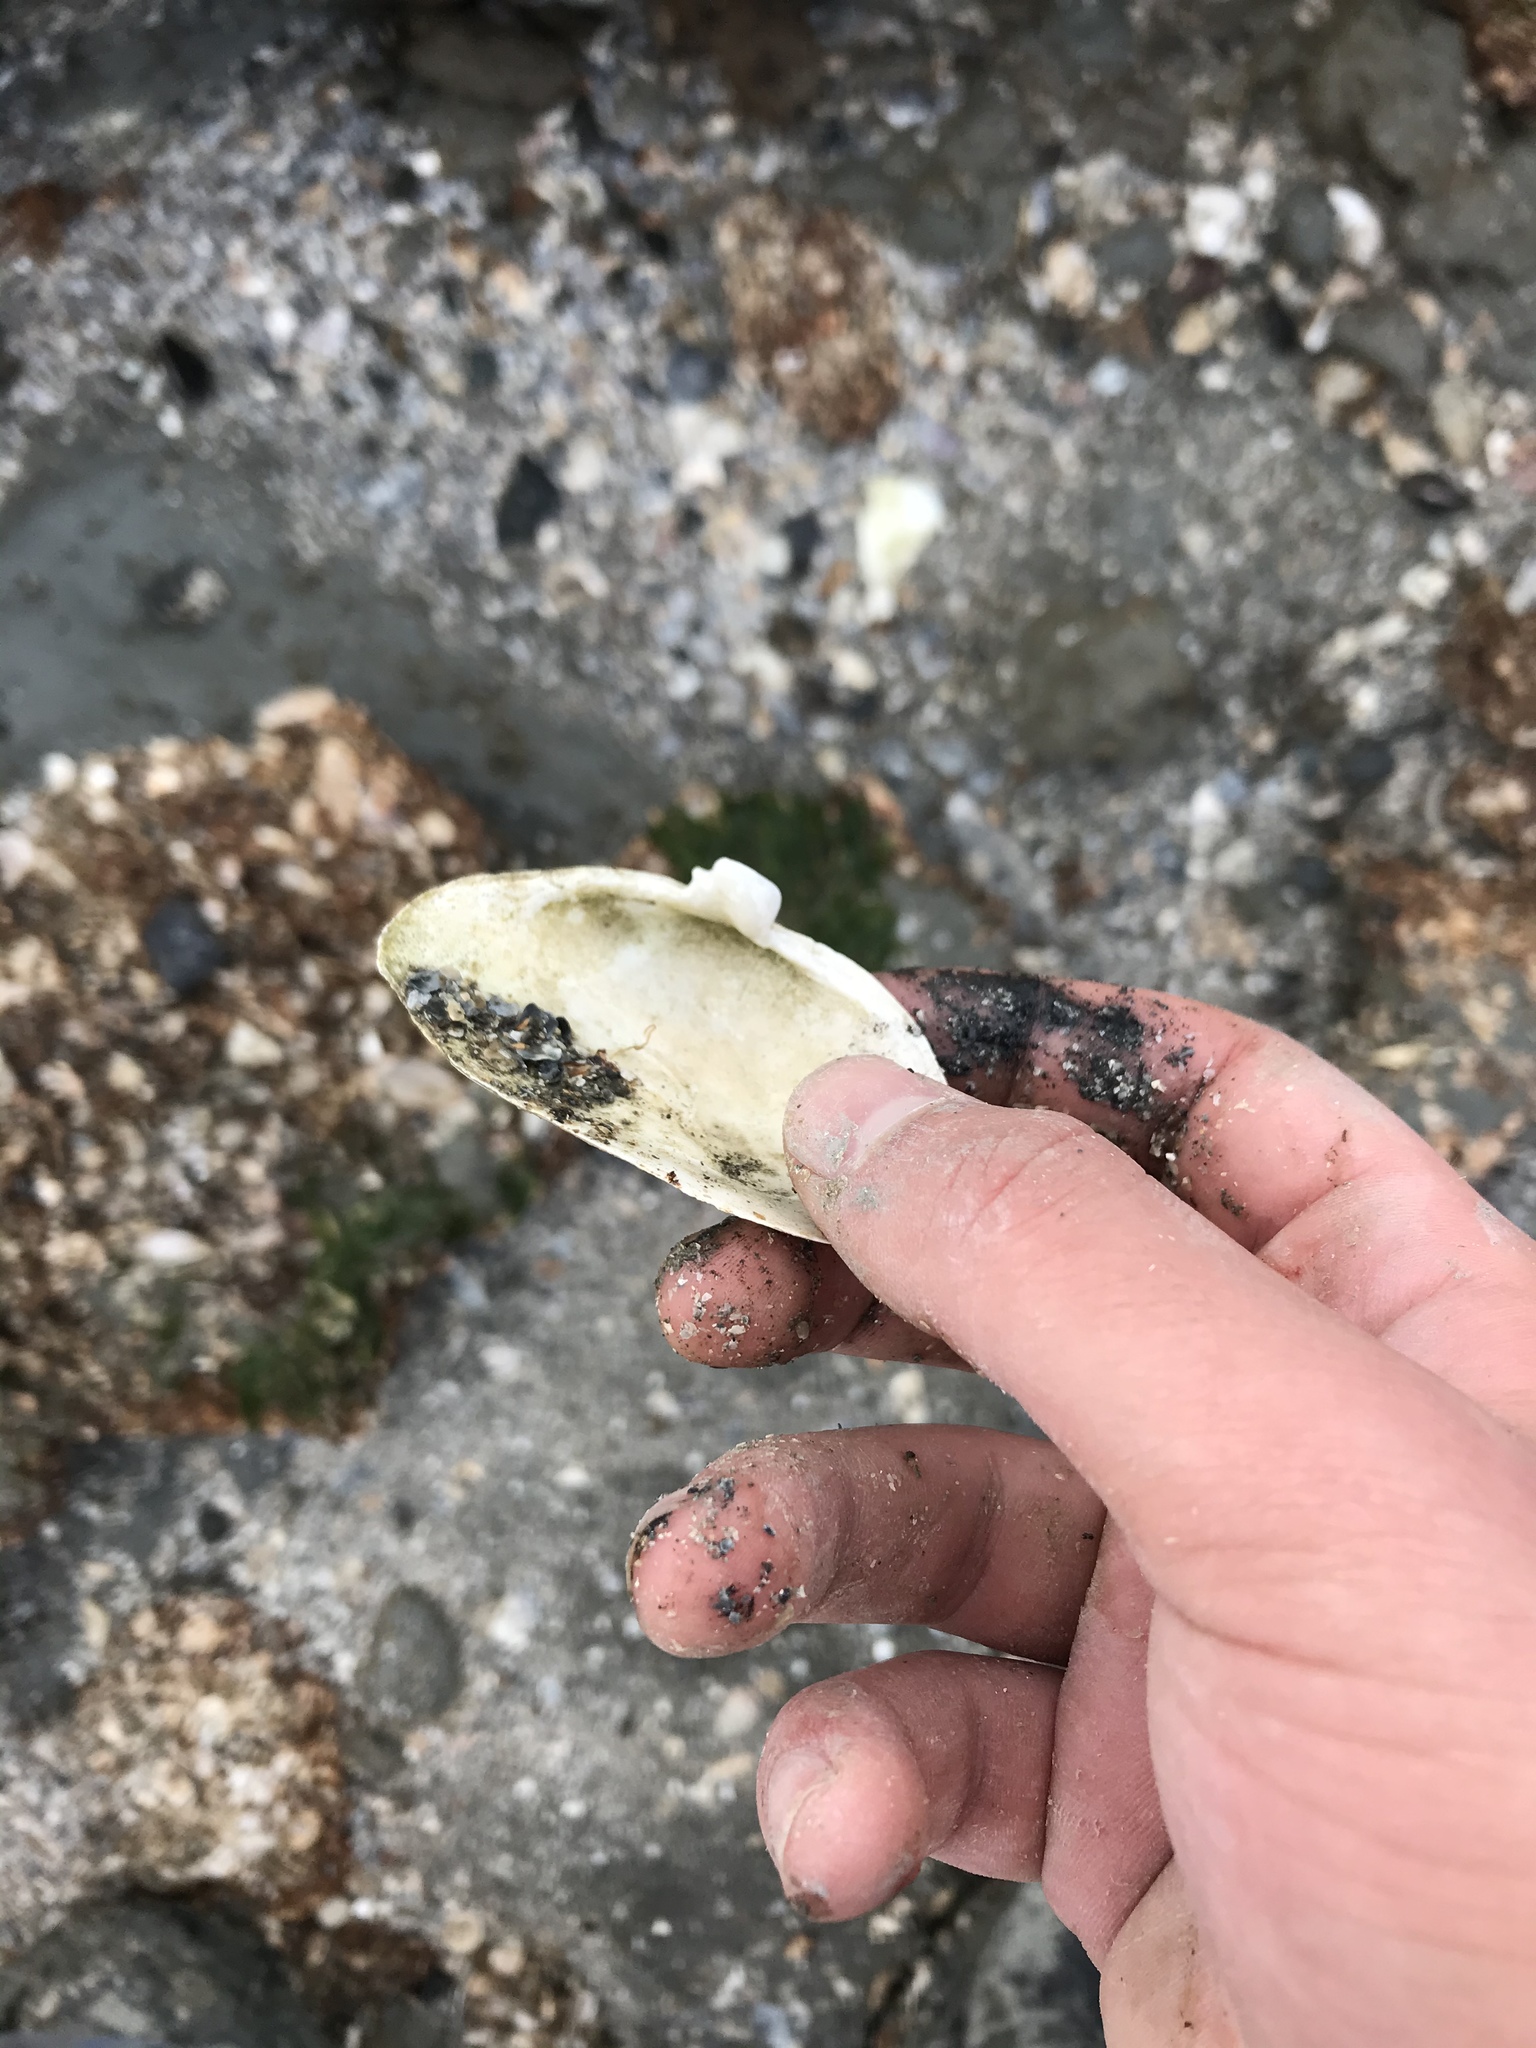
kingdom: Animalia
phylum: Mollusca
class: Bivalvia
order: Myida
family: Myidae
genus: Mya
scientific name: Mya arenaria
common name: Soft-shelled clam
